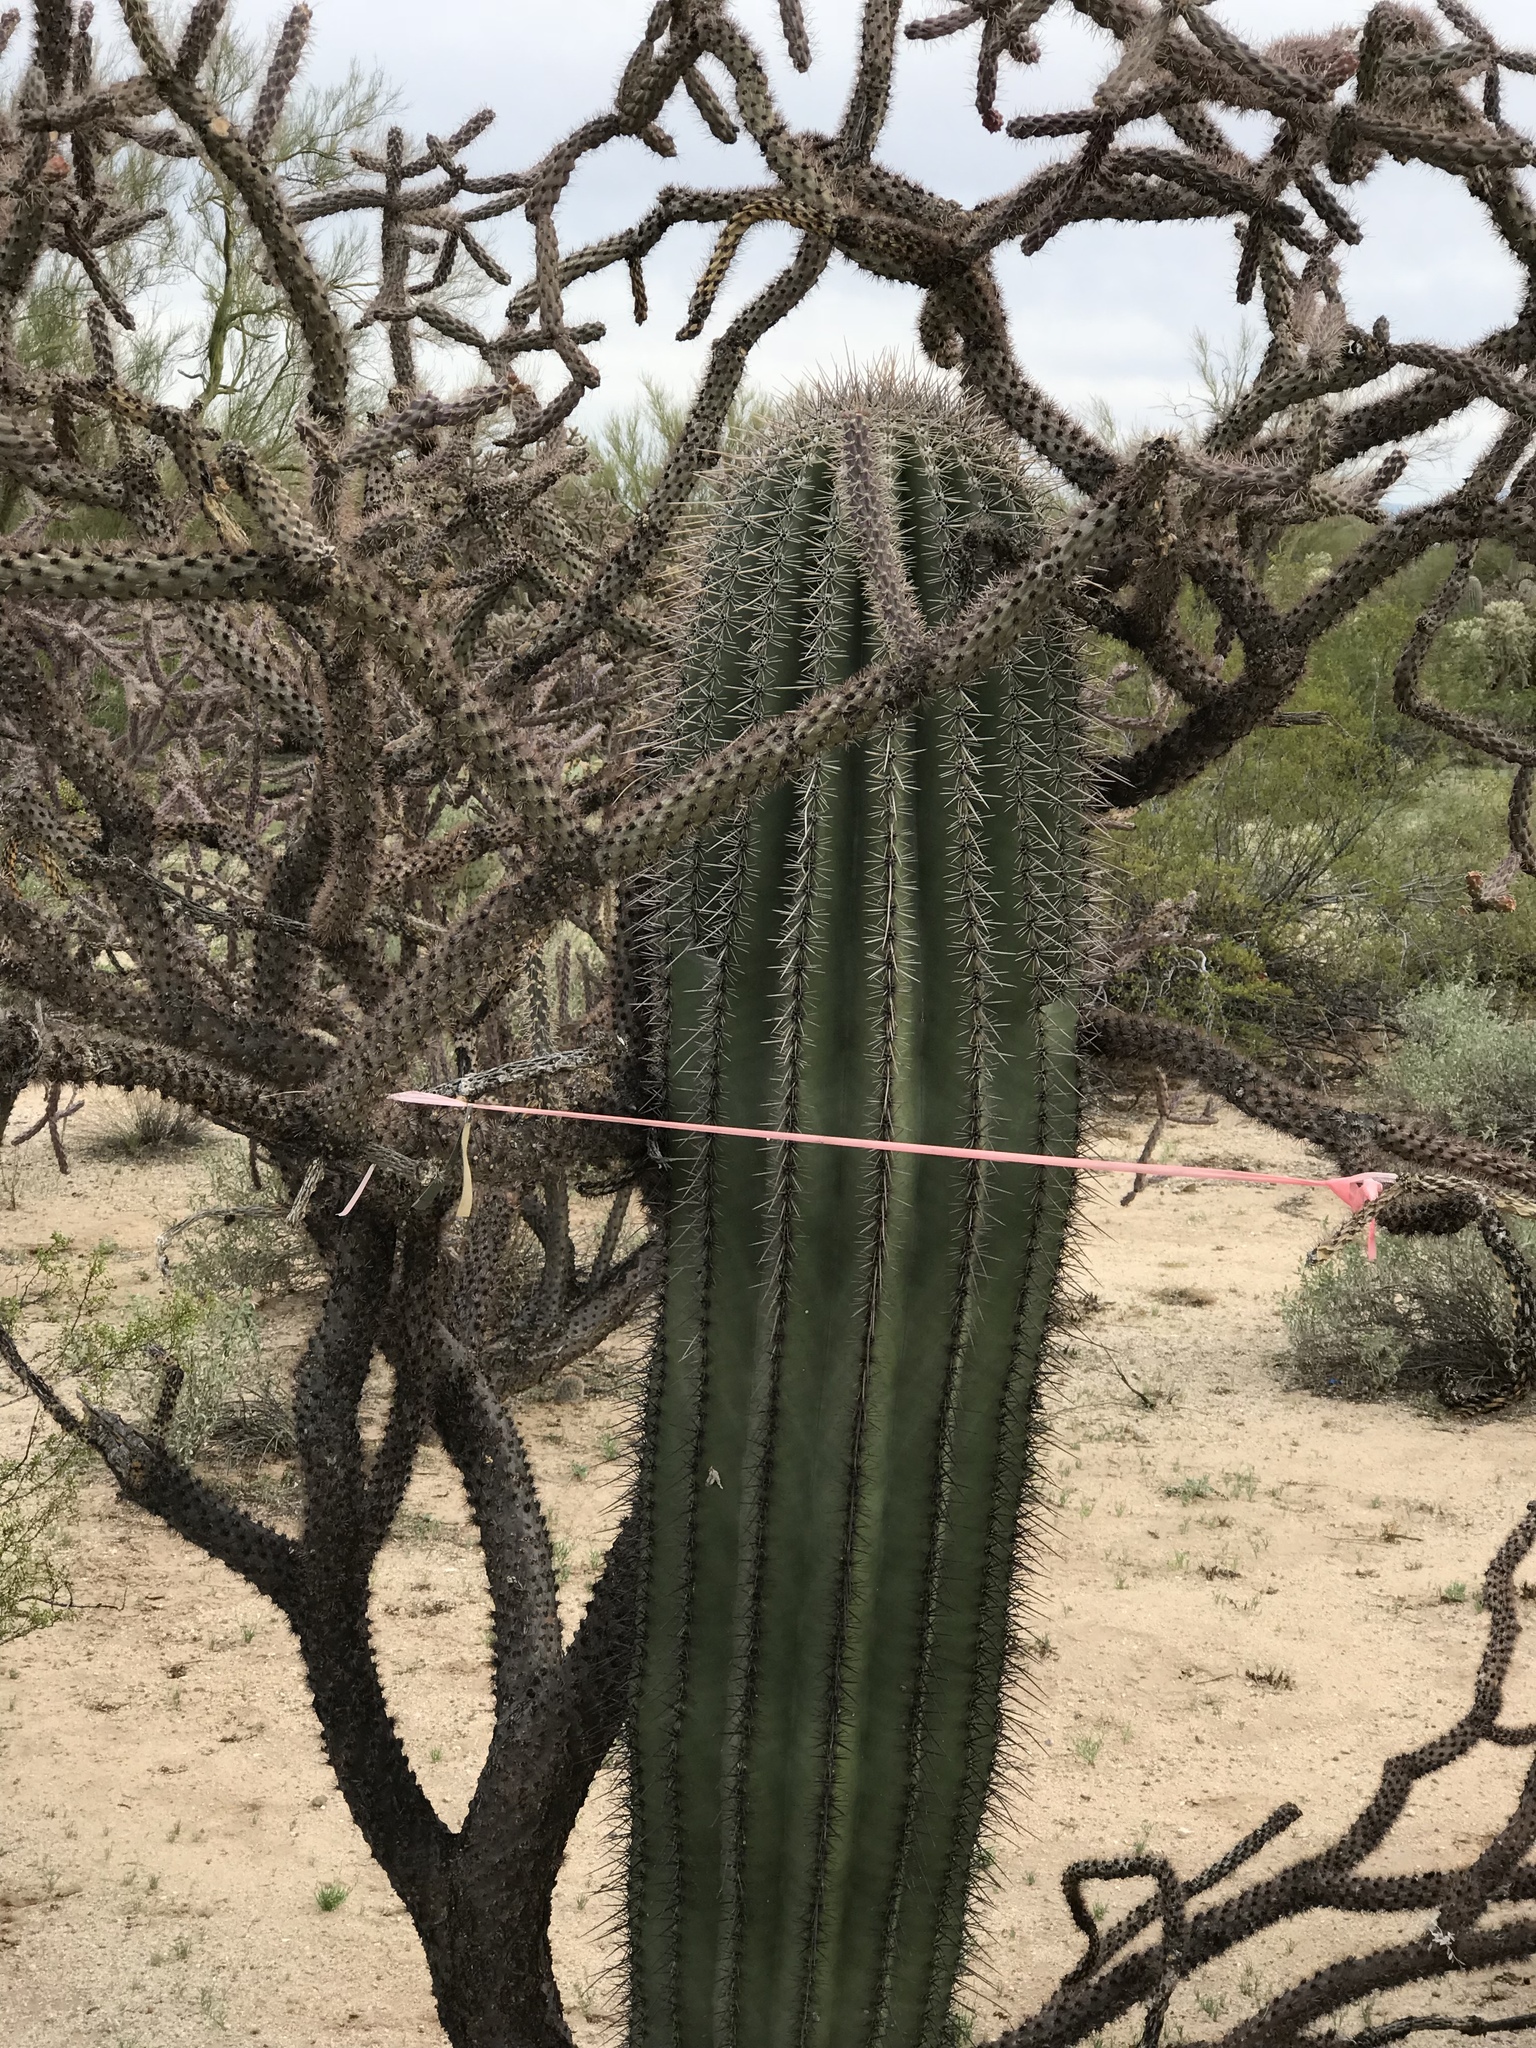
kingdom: Plantae
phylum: Tracheophyta
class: Magnoliopsida
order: Caryophyllales
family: Cactaceae
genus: Carnegiea
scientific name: Carnegiea gigantea
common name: Saguaro
